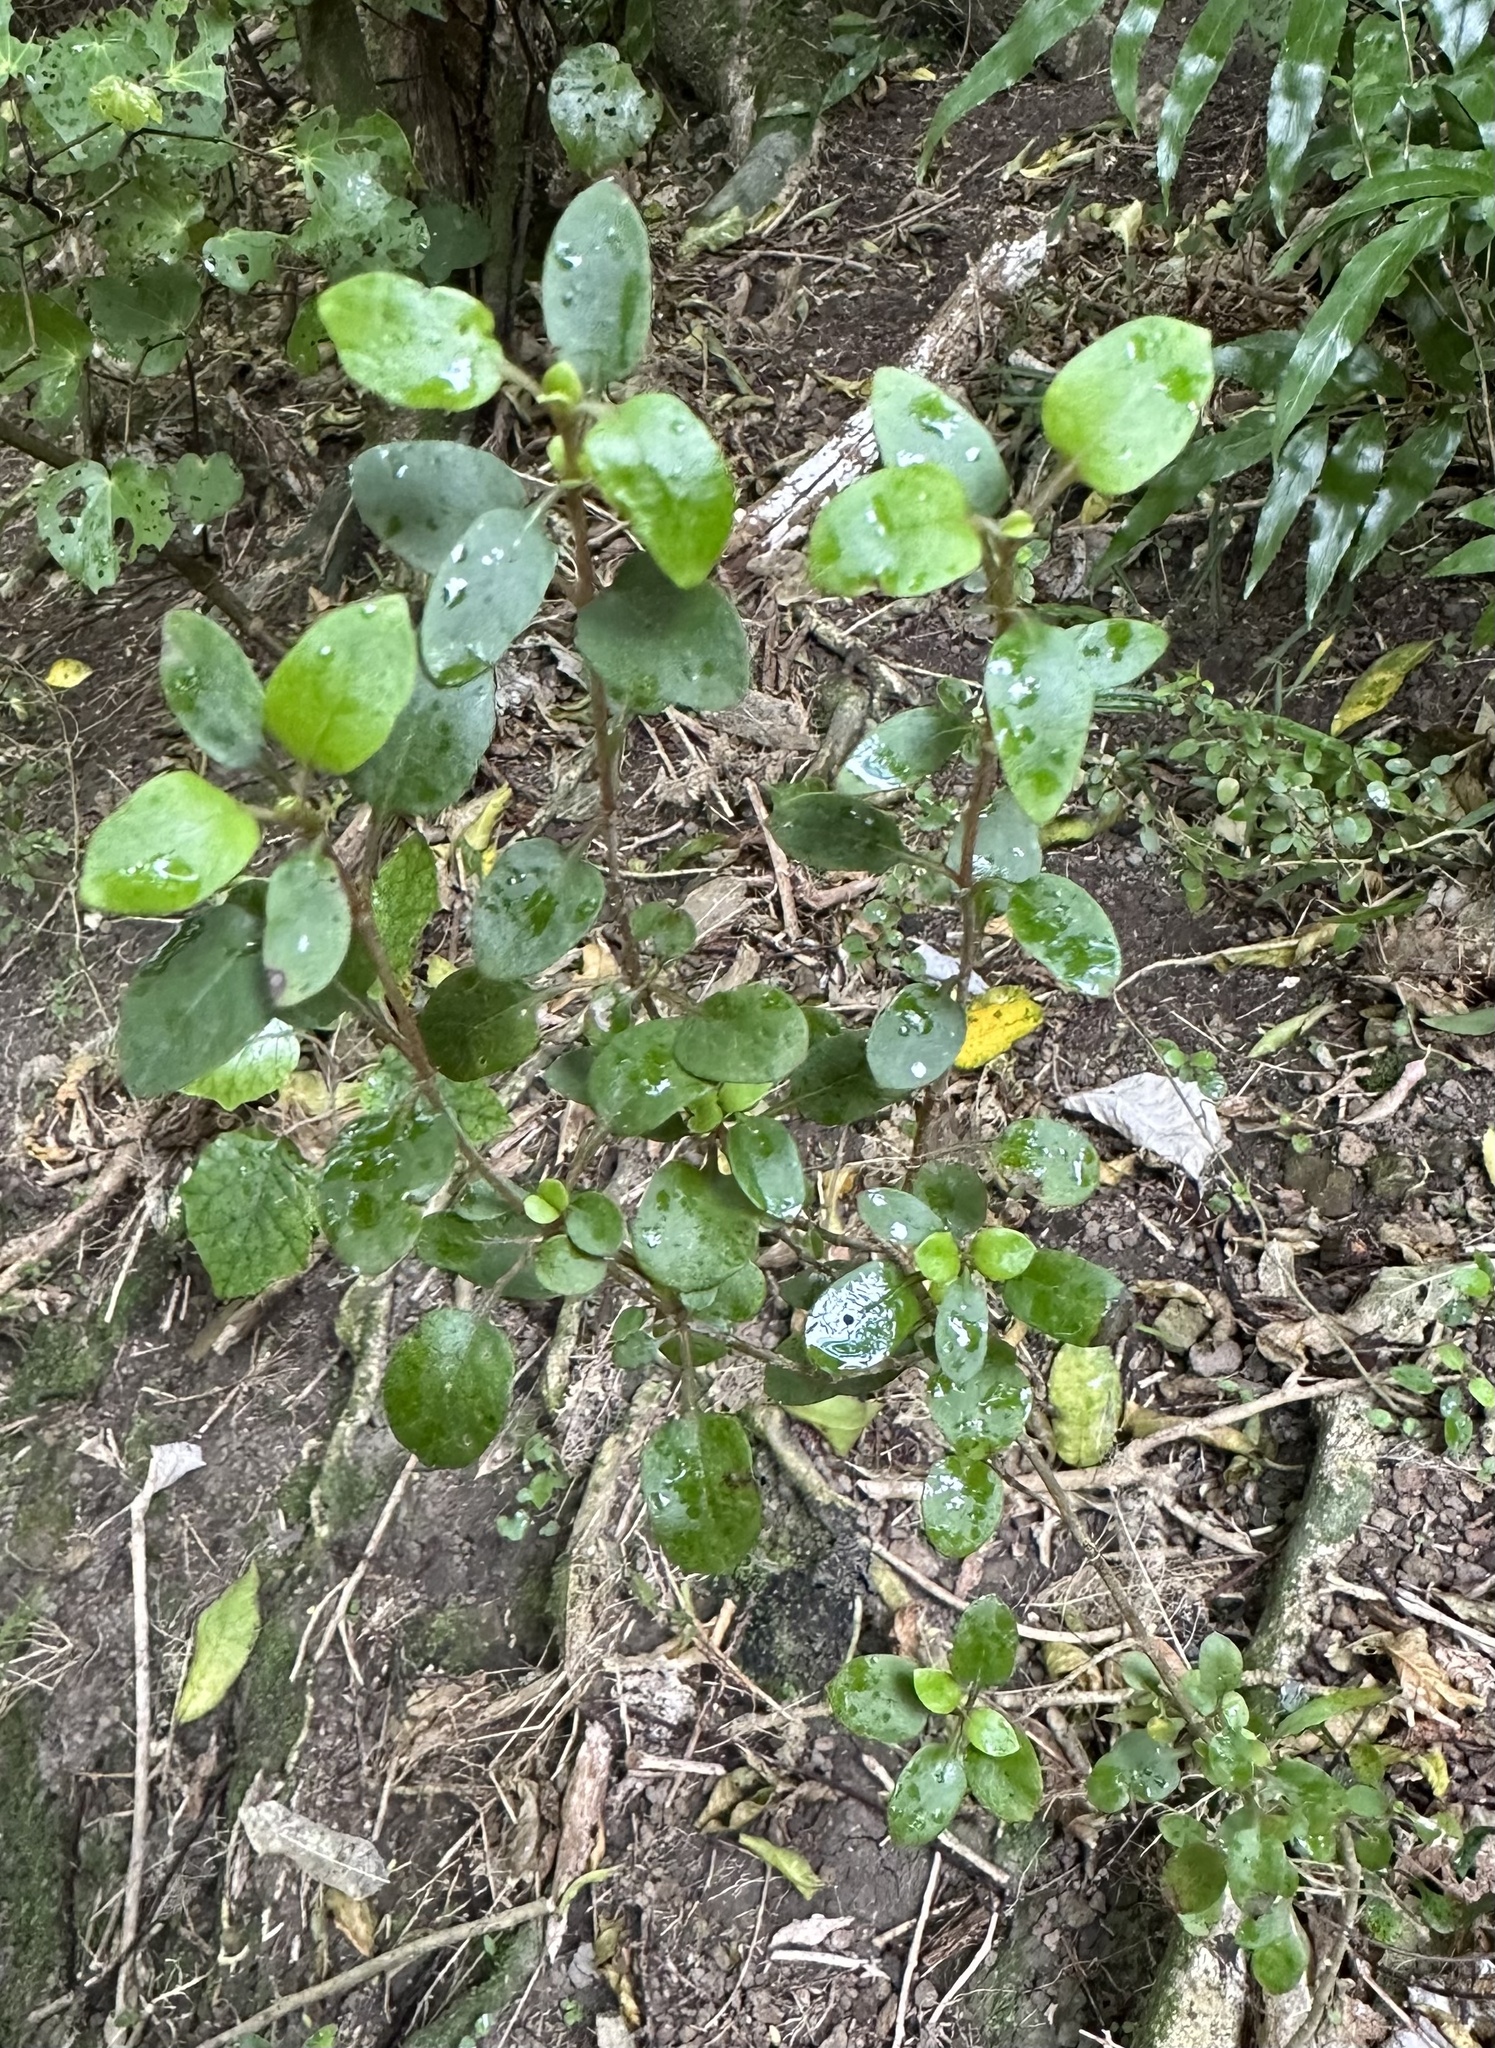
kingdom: Plantae
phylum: Tracheophyta
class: Magnoliopsida
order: Gentianales
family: Rubiaceae
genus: Coprosma
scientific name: Coprosma rubra
